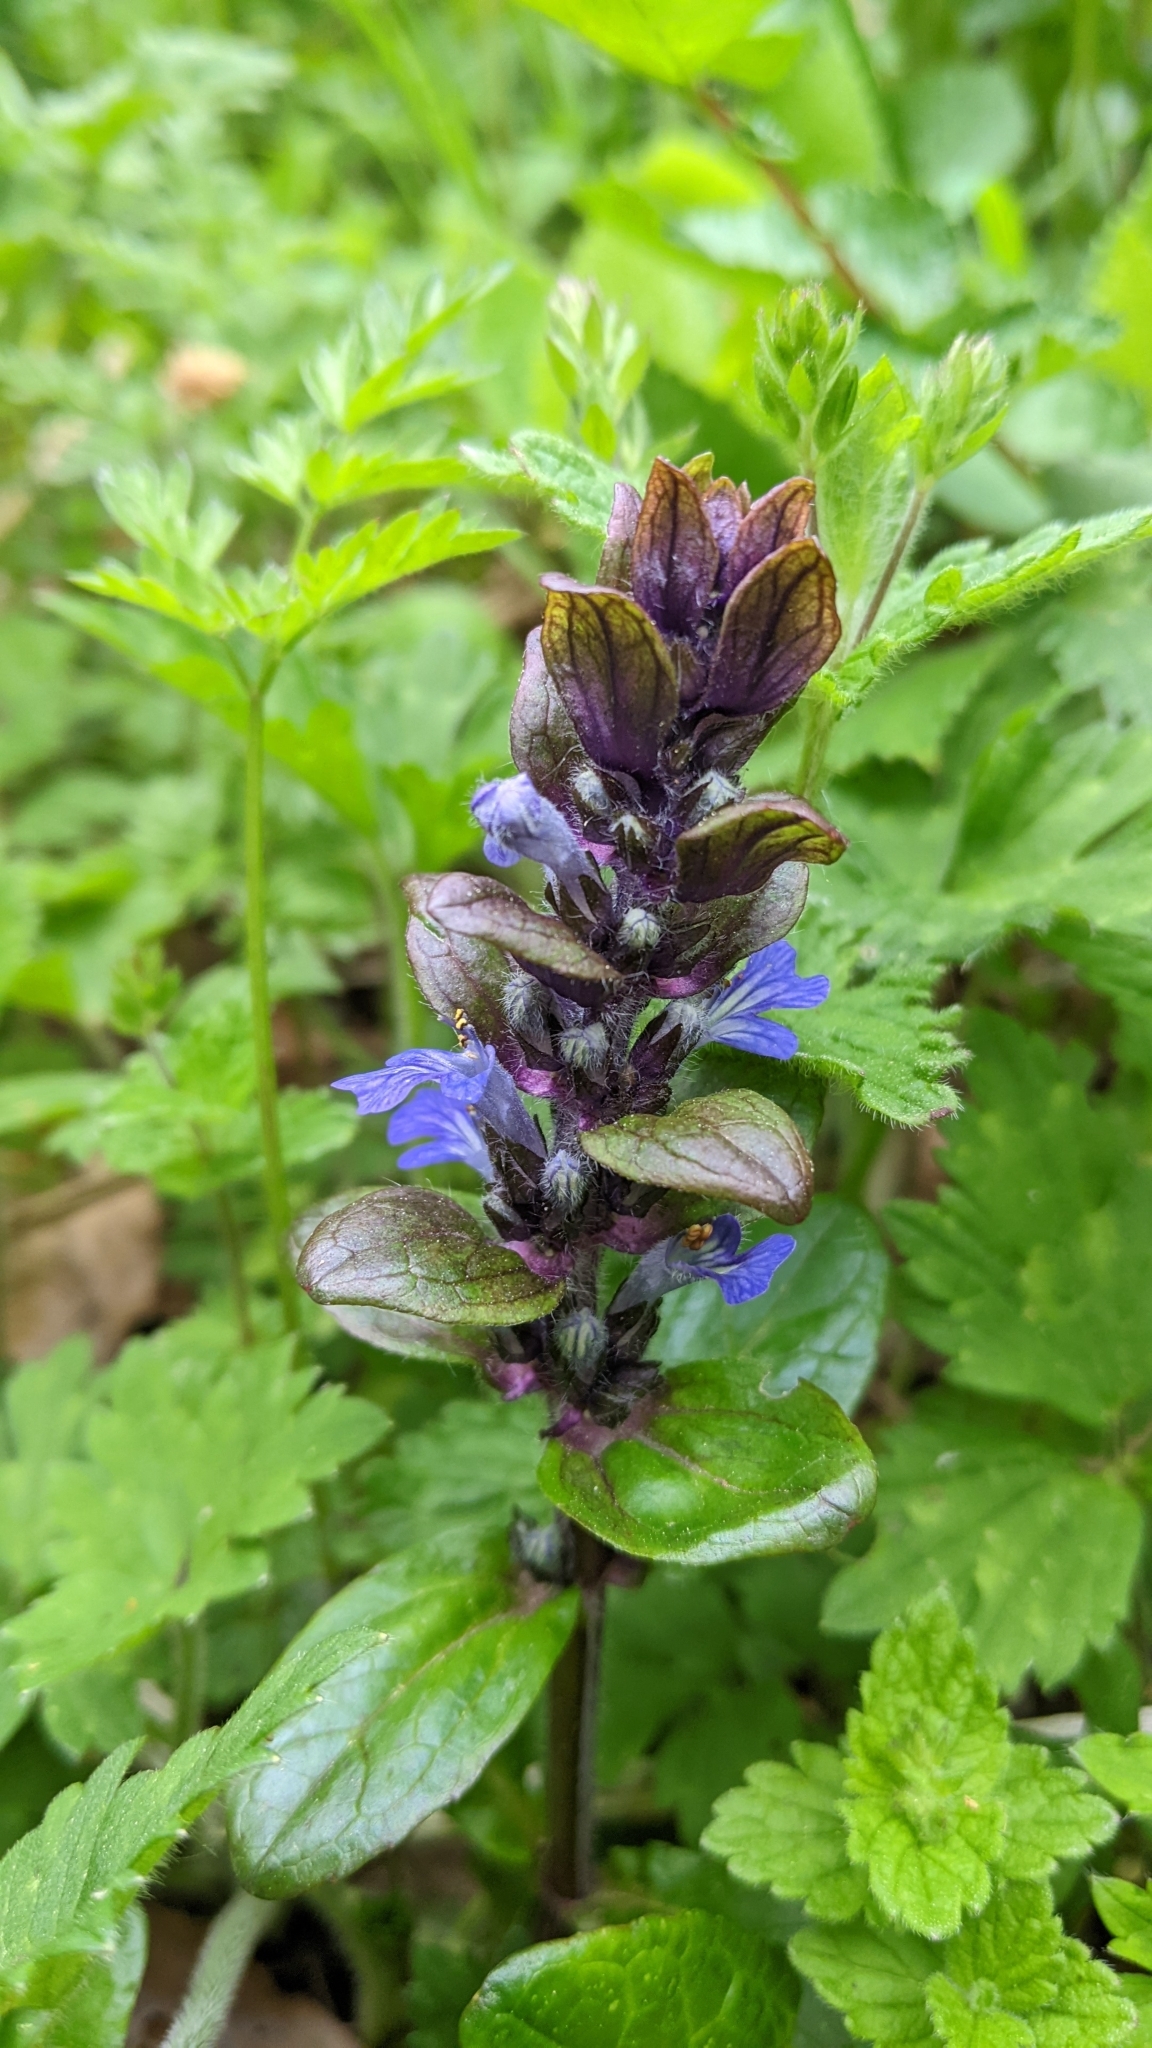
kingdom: Plantae
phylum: Tracheophyta
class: Magnoliopsida
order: Lamiales
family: Lamiaceae
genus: Ajuga
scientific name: Ajuga reptans
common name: Bugle
